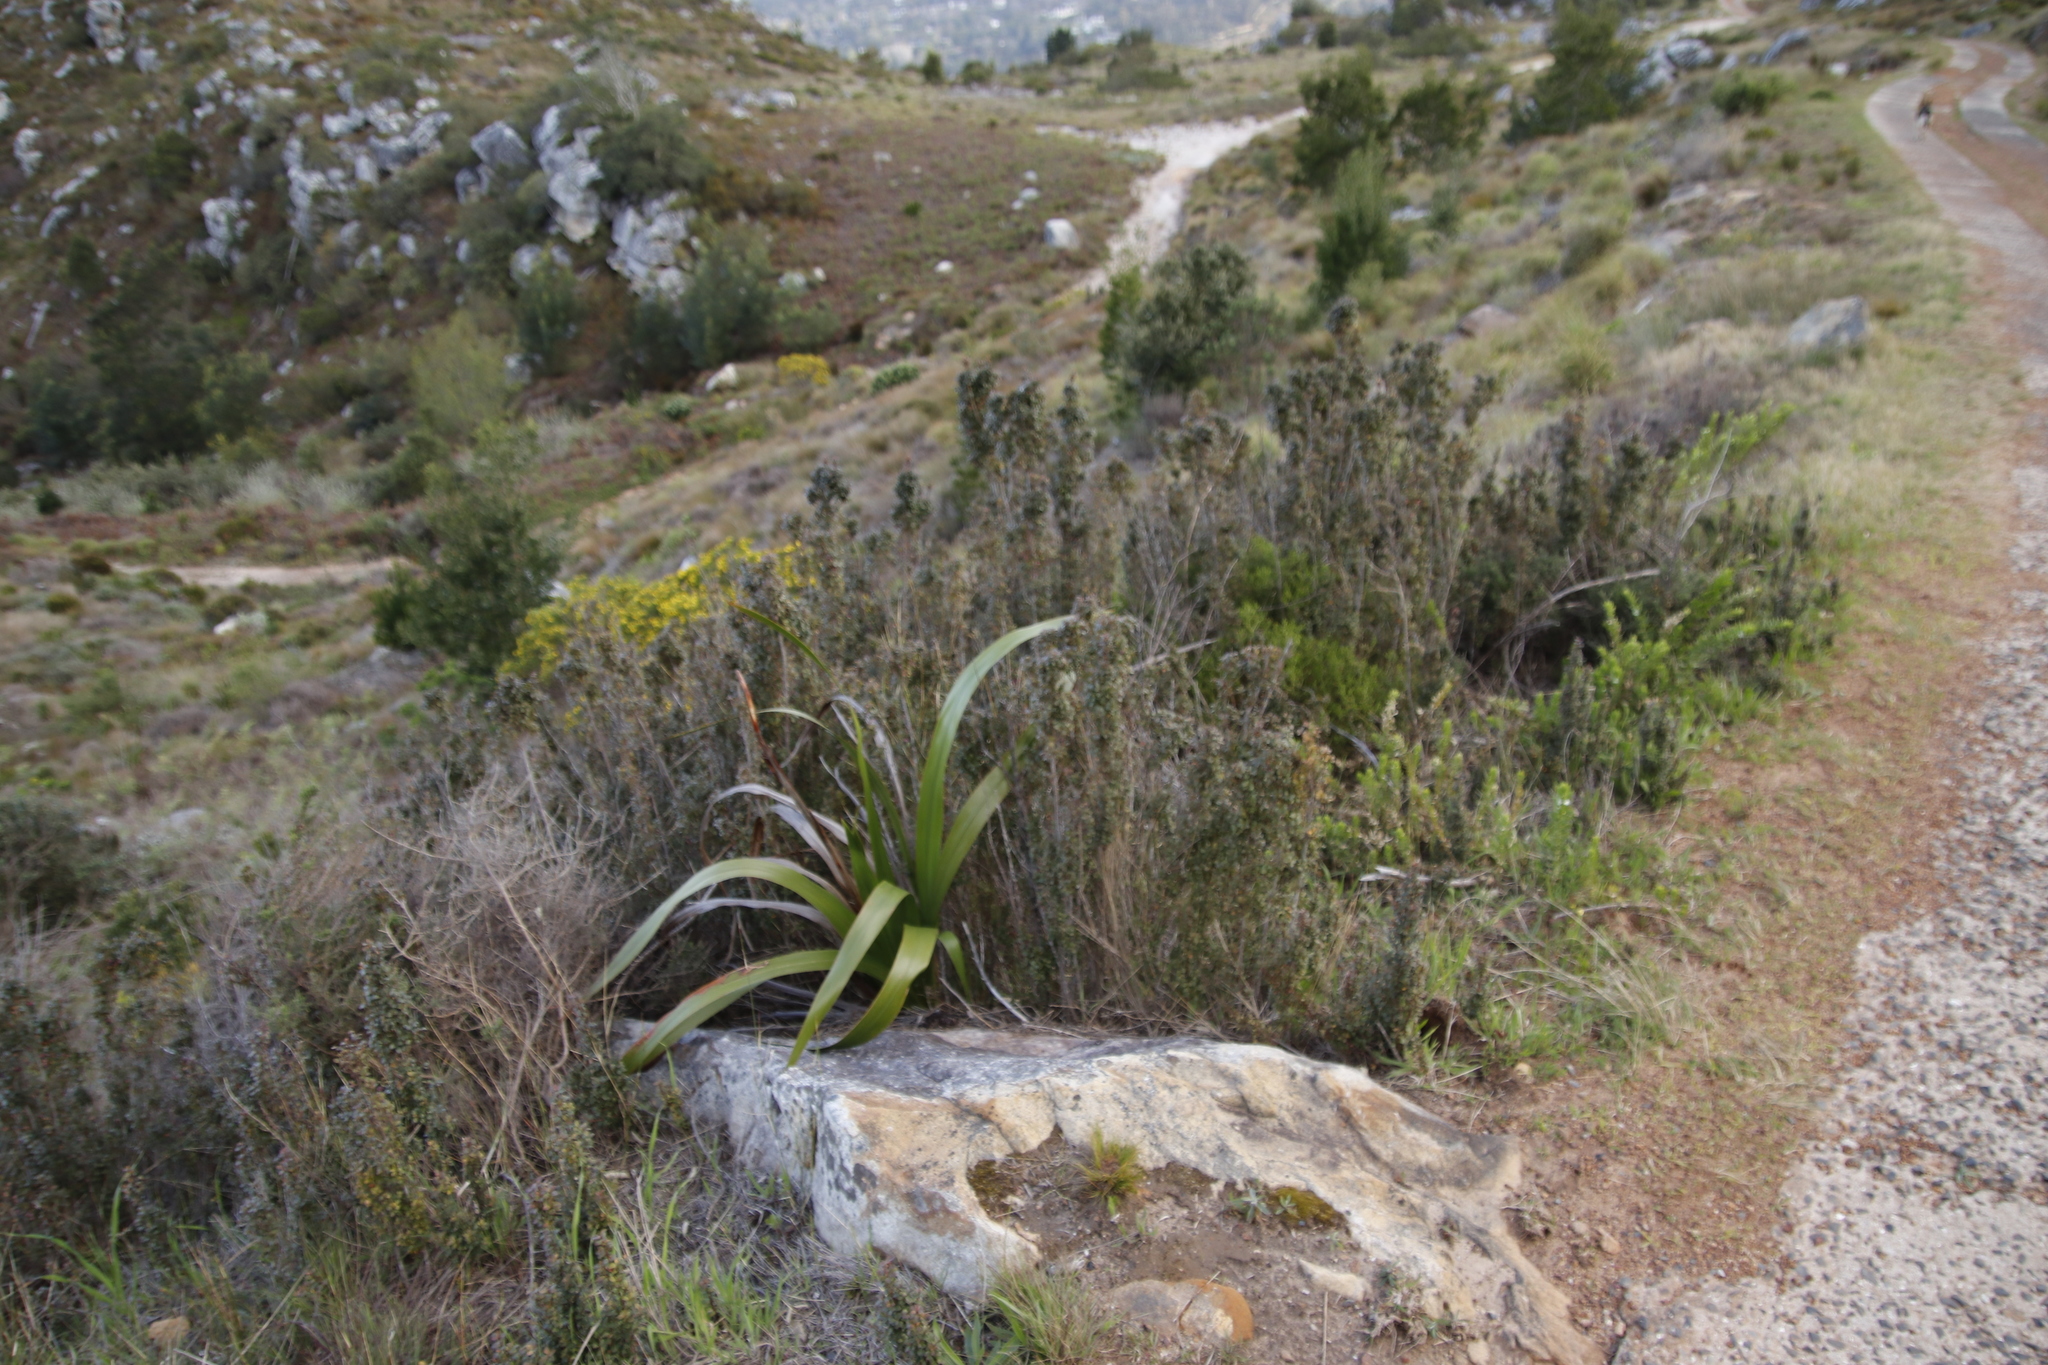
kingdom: Plantae
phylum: Tracheophyta
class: Magnoliopsida
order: Ericales
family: Primulaceae
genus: Myrsine
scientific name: Myrsine africana
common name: African-boxwood
